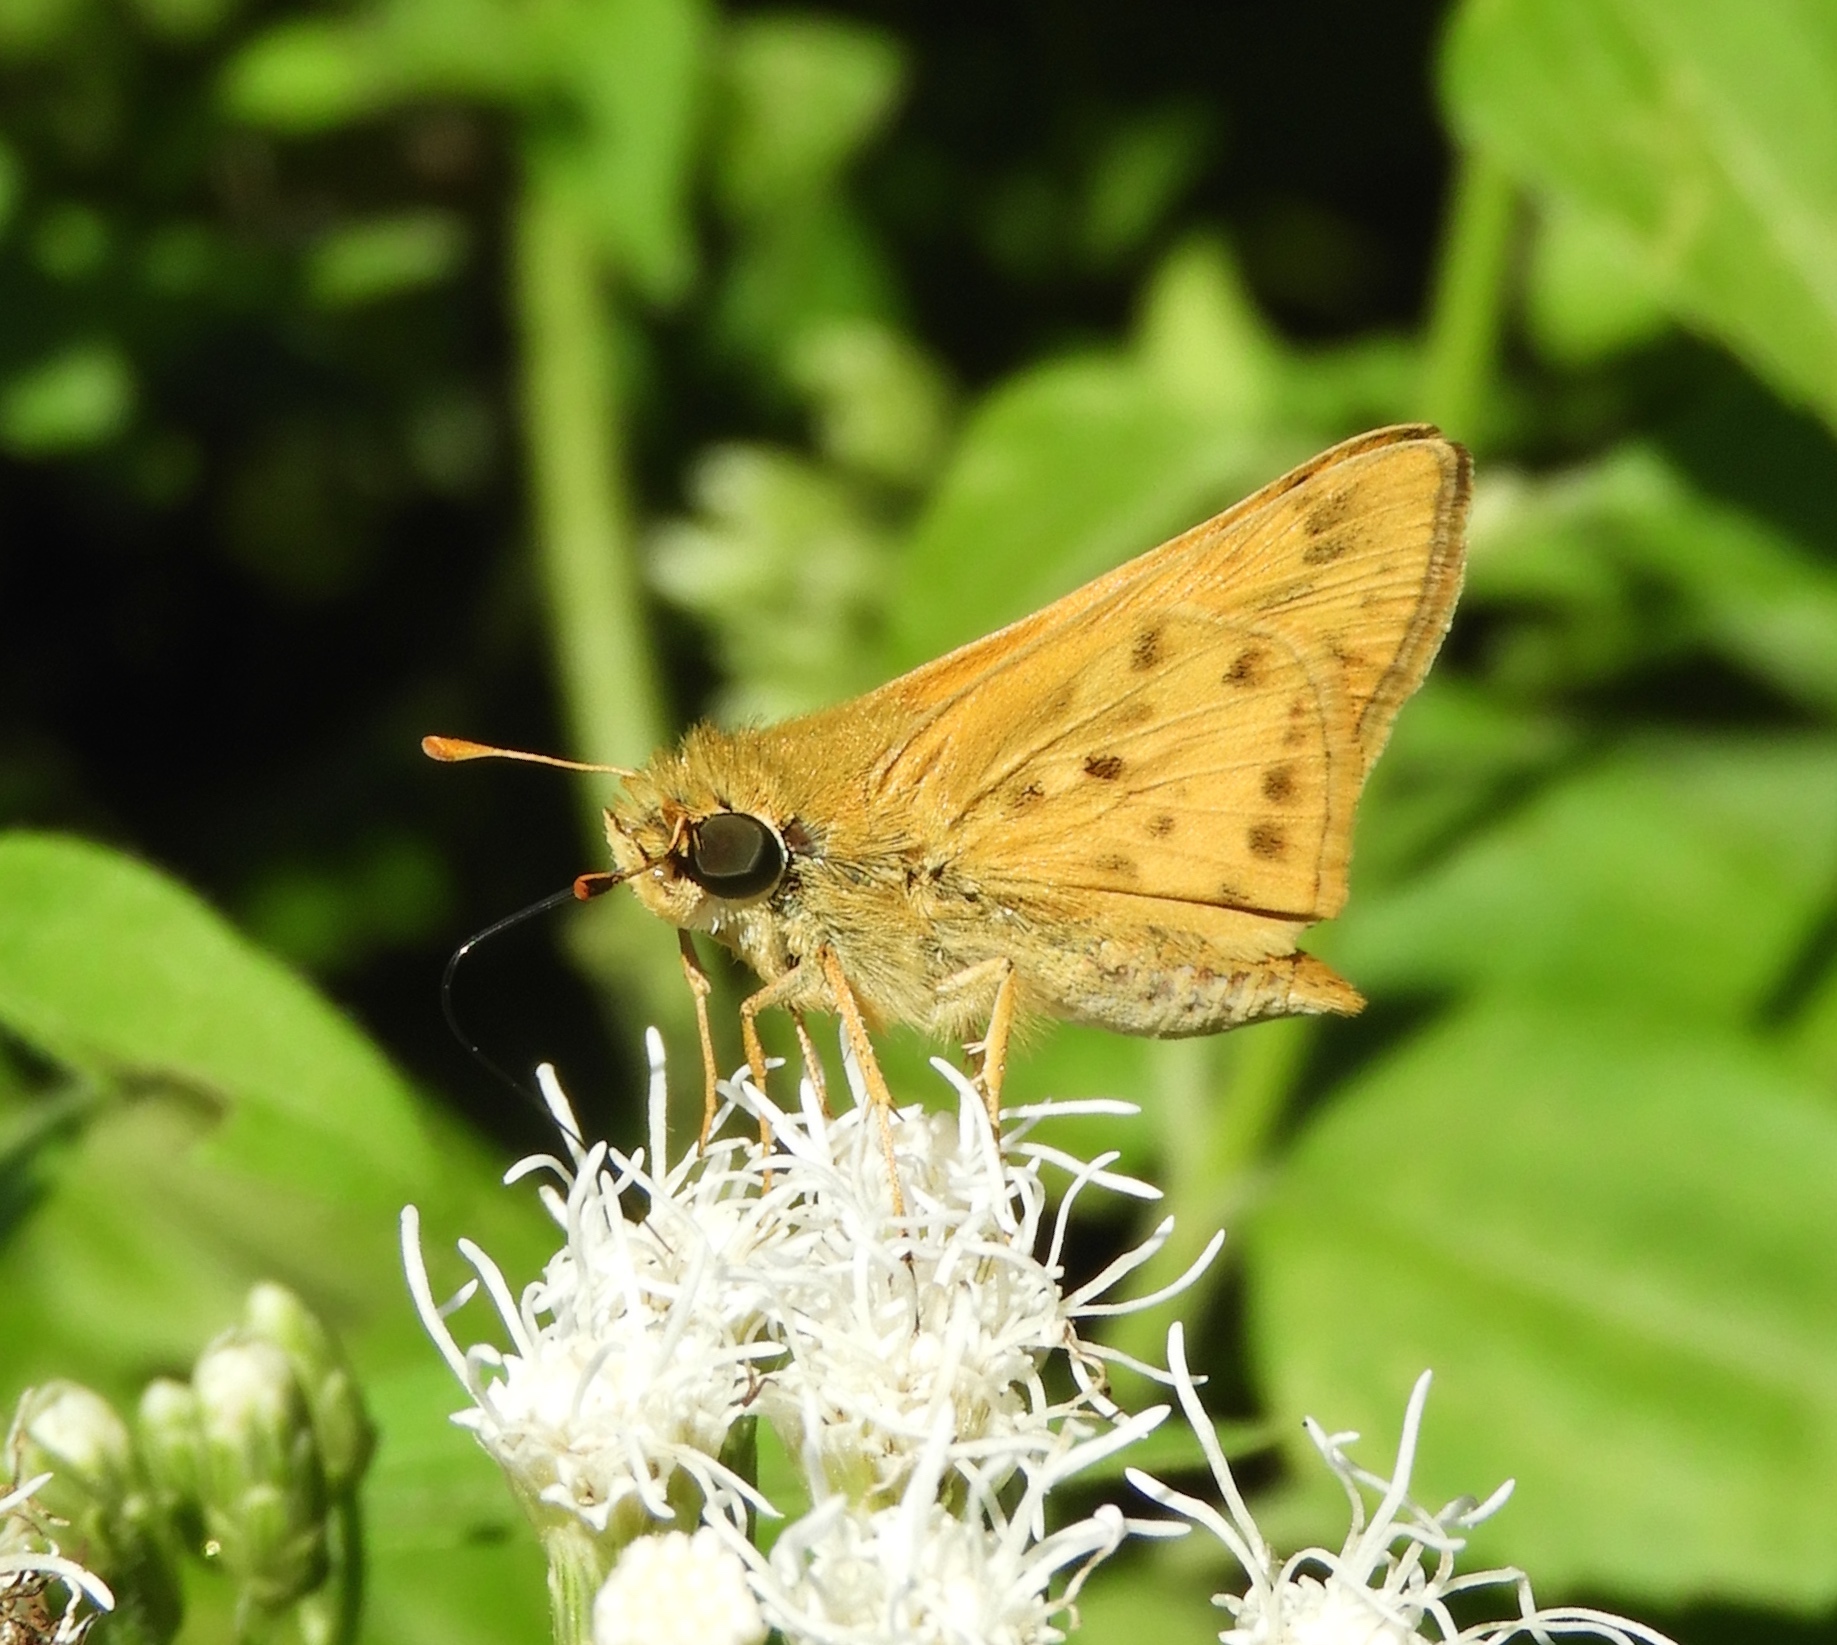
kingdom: Animalia
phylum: Arthropoda
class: Insecta
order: Lepidoptera
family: Hesperiidae
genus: Hylephila
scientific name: Hylephila phyleus
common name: Fiery skipper
